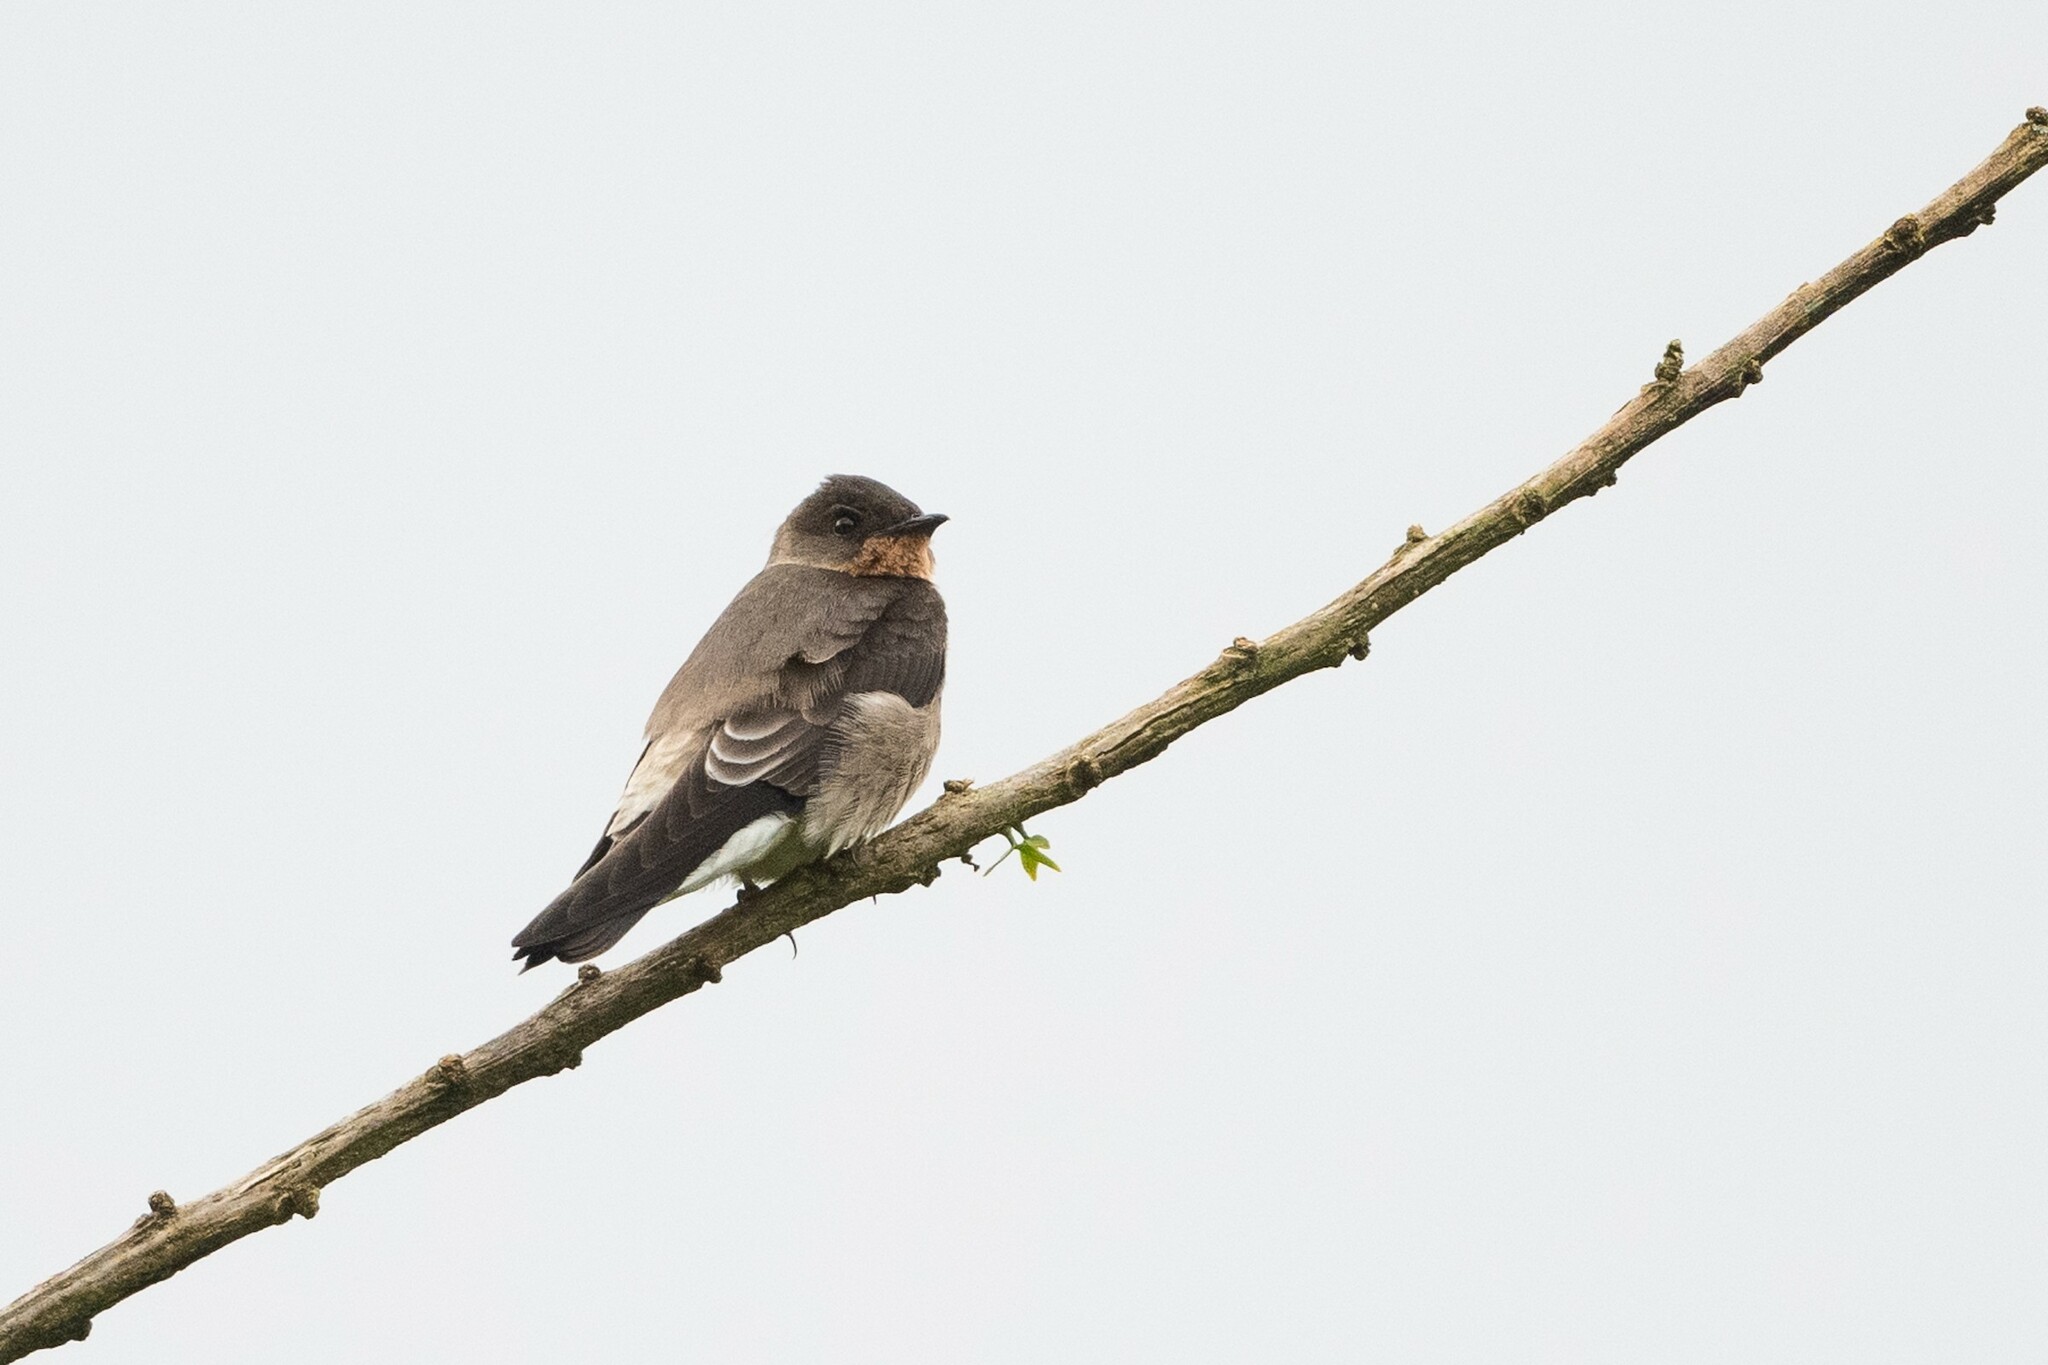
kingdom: Animalia
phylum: Chordata
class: Aves
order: Passeriformes
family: Hirundinidae
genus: Stelgidopteryx
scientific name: Stelgidopteryx ruficollis
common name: Southern rough-winged swallow
